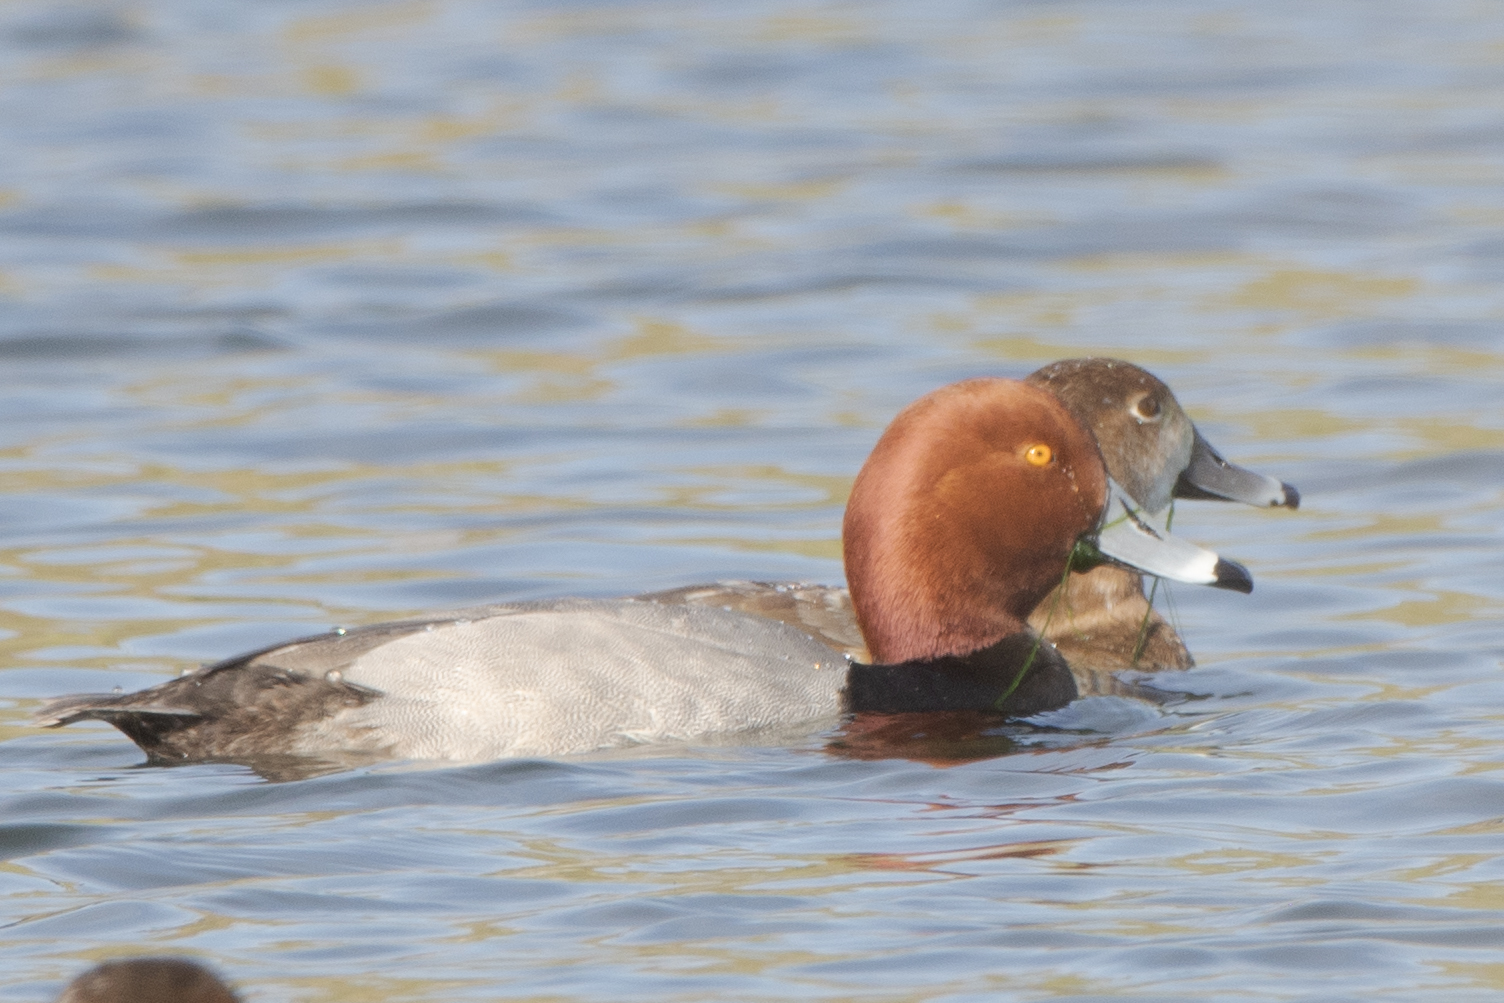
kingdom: Animalia
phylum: Chordata
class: Aves
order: Anseriformes
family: Anatidae
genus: Aythya
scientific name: Aythya americana
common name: Redhead
